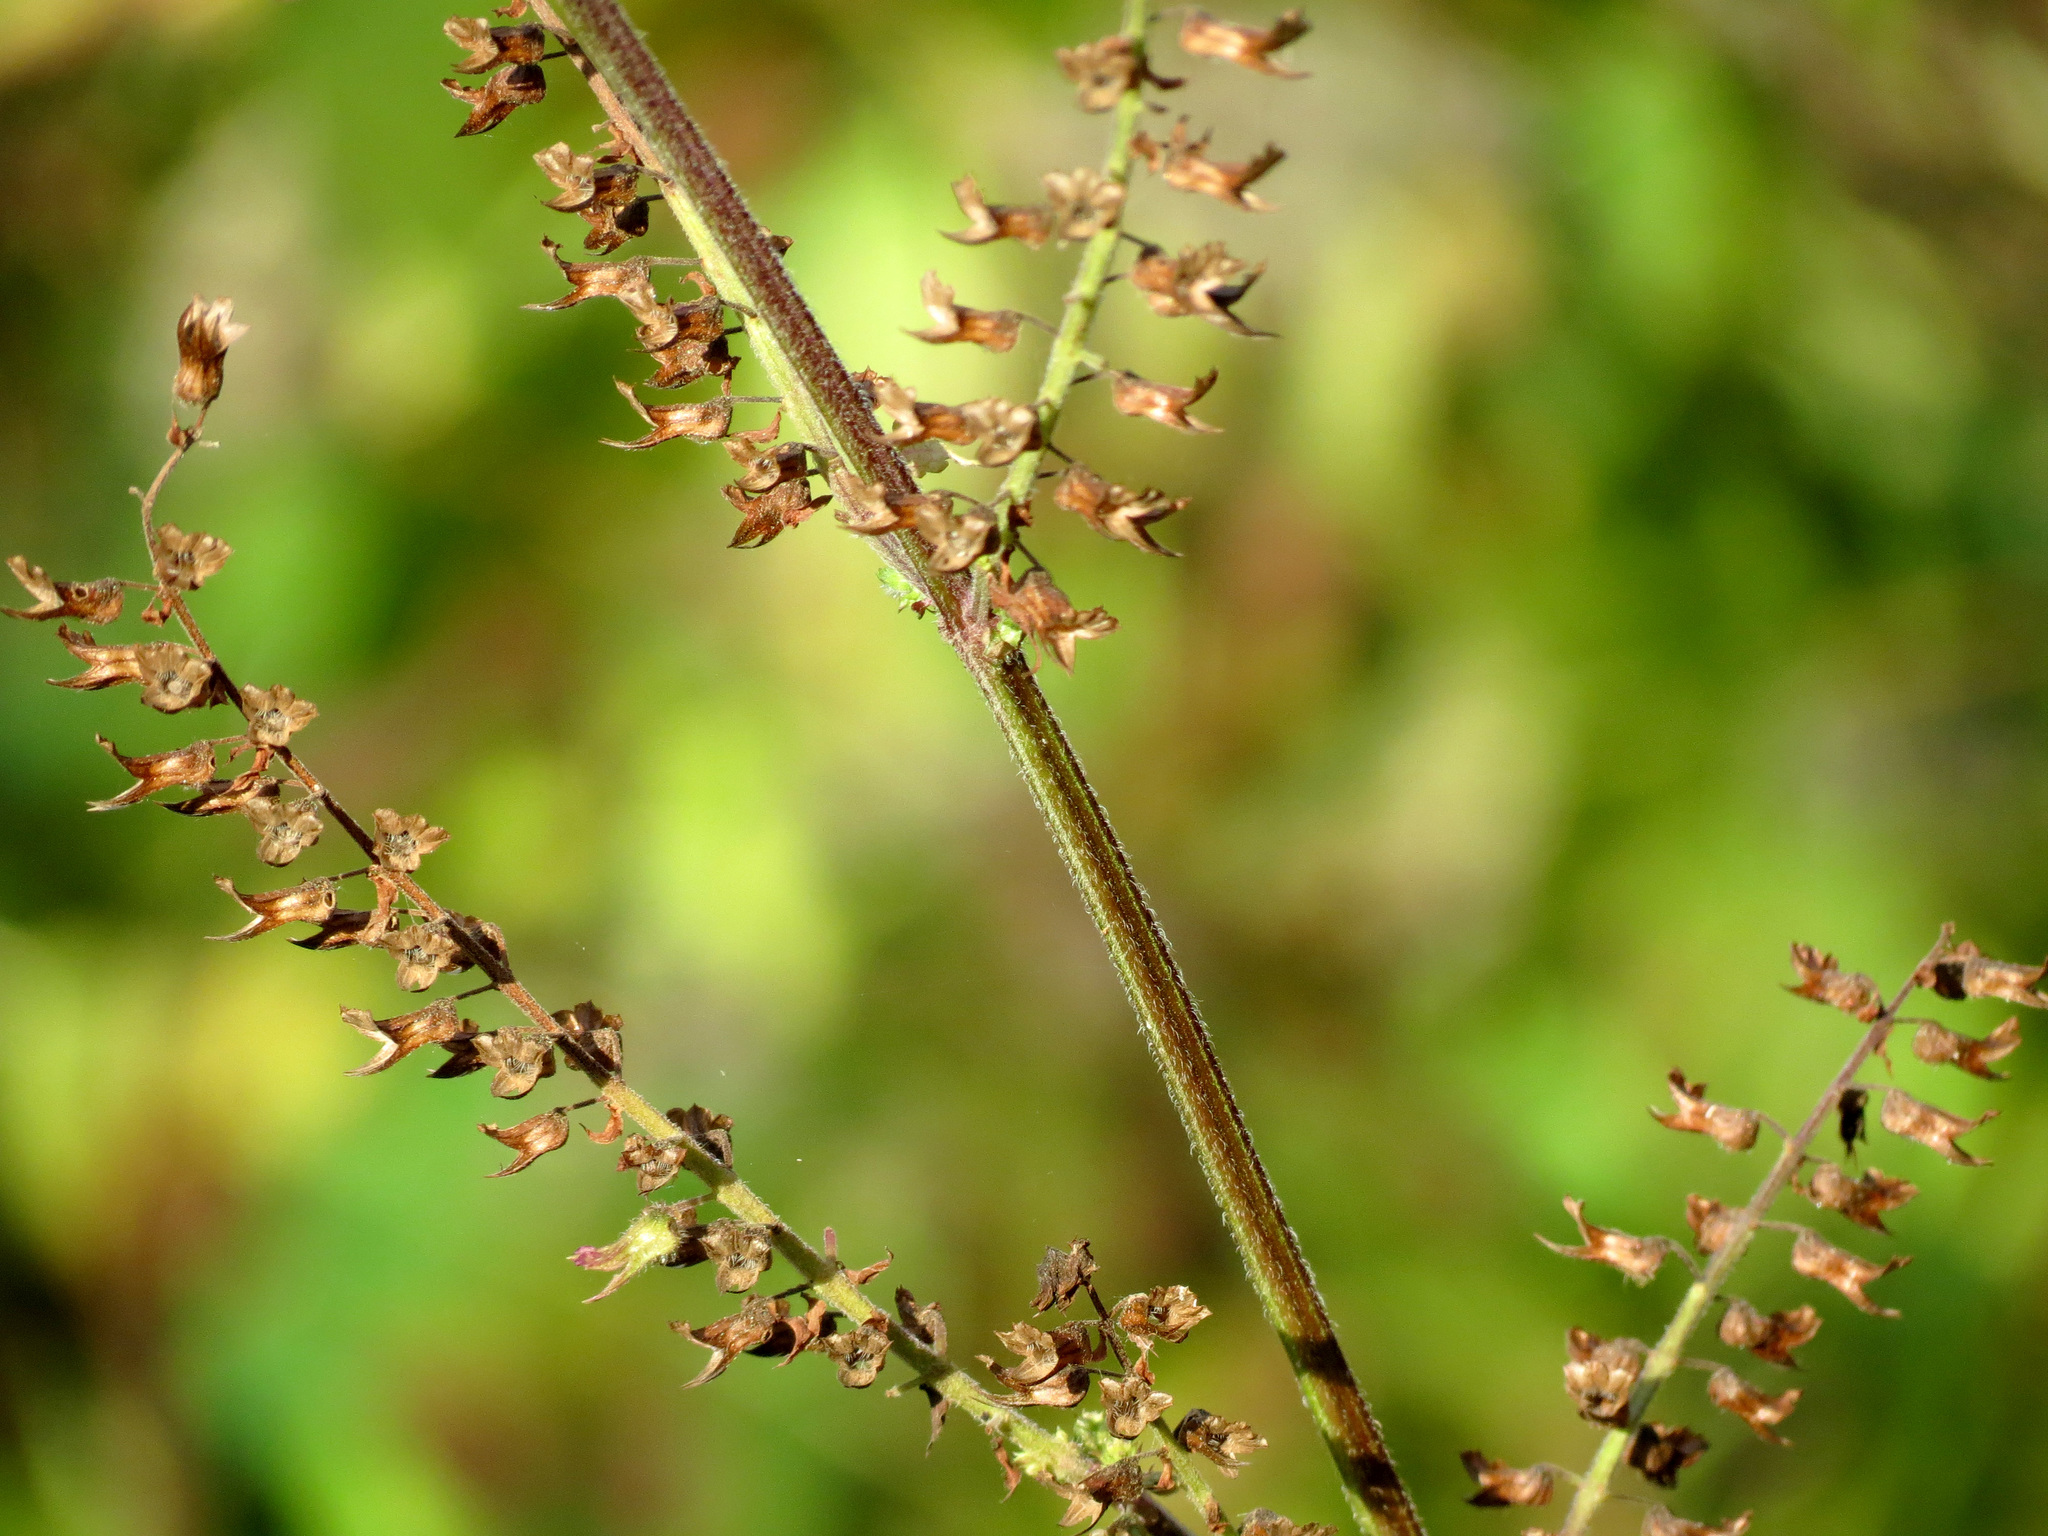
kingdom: Plantae
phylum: Tracheophyta
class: Magnoliopsida
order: Lamiales
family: Lamiaceae
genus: Perilla
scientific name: Perilla frutescens
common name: Perilla
